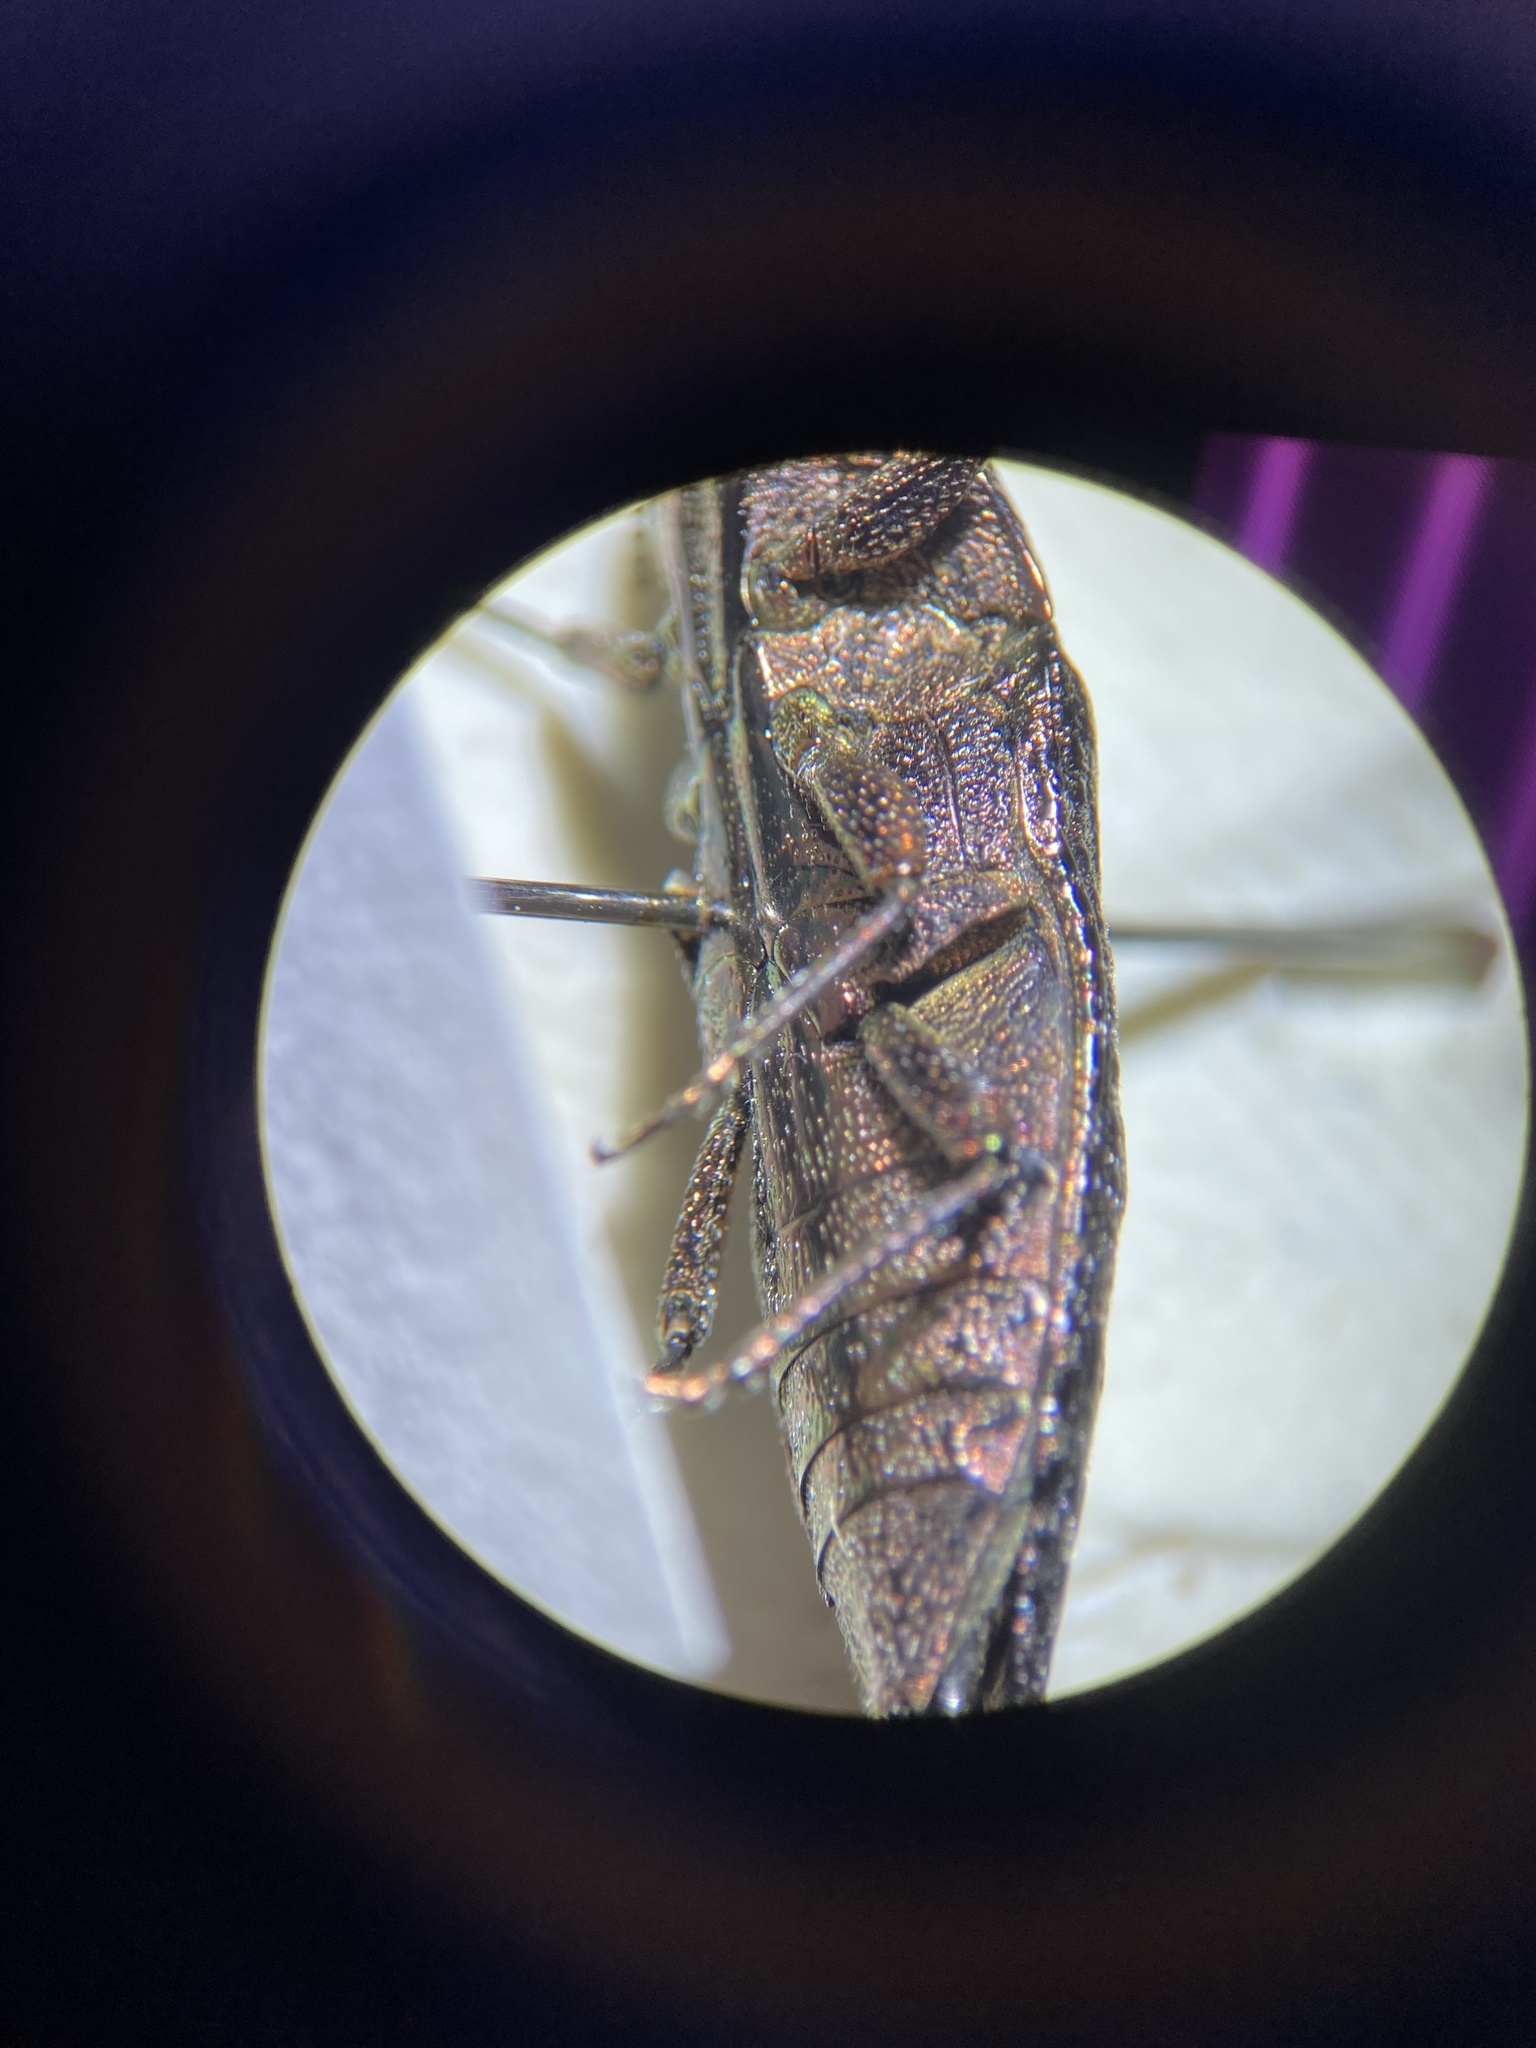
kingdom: Animalia
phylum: Arthropoda
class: Insecta
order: Coleoptera
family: Buprestidae
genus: Dicerca
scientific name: Dicerca obscura
